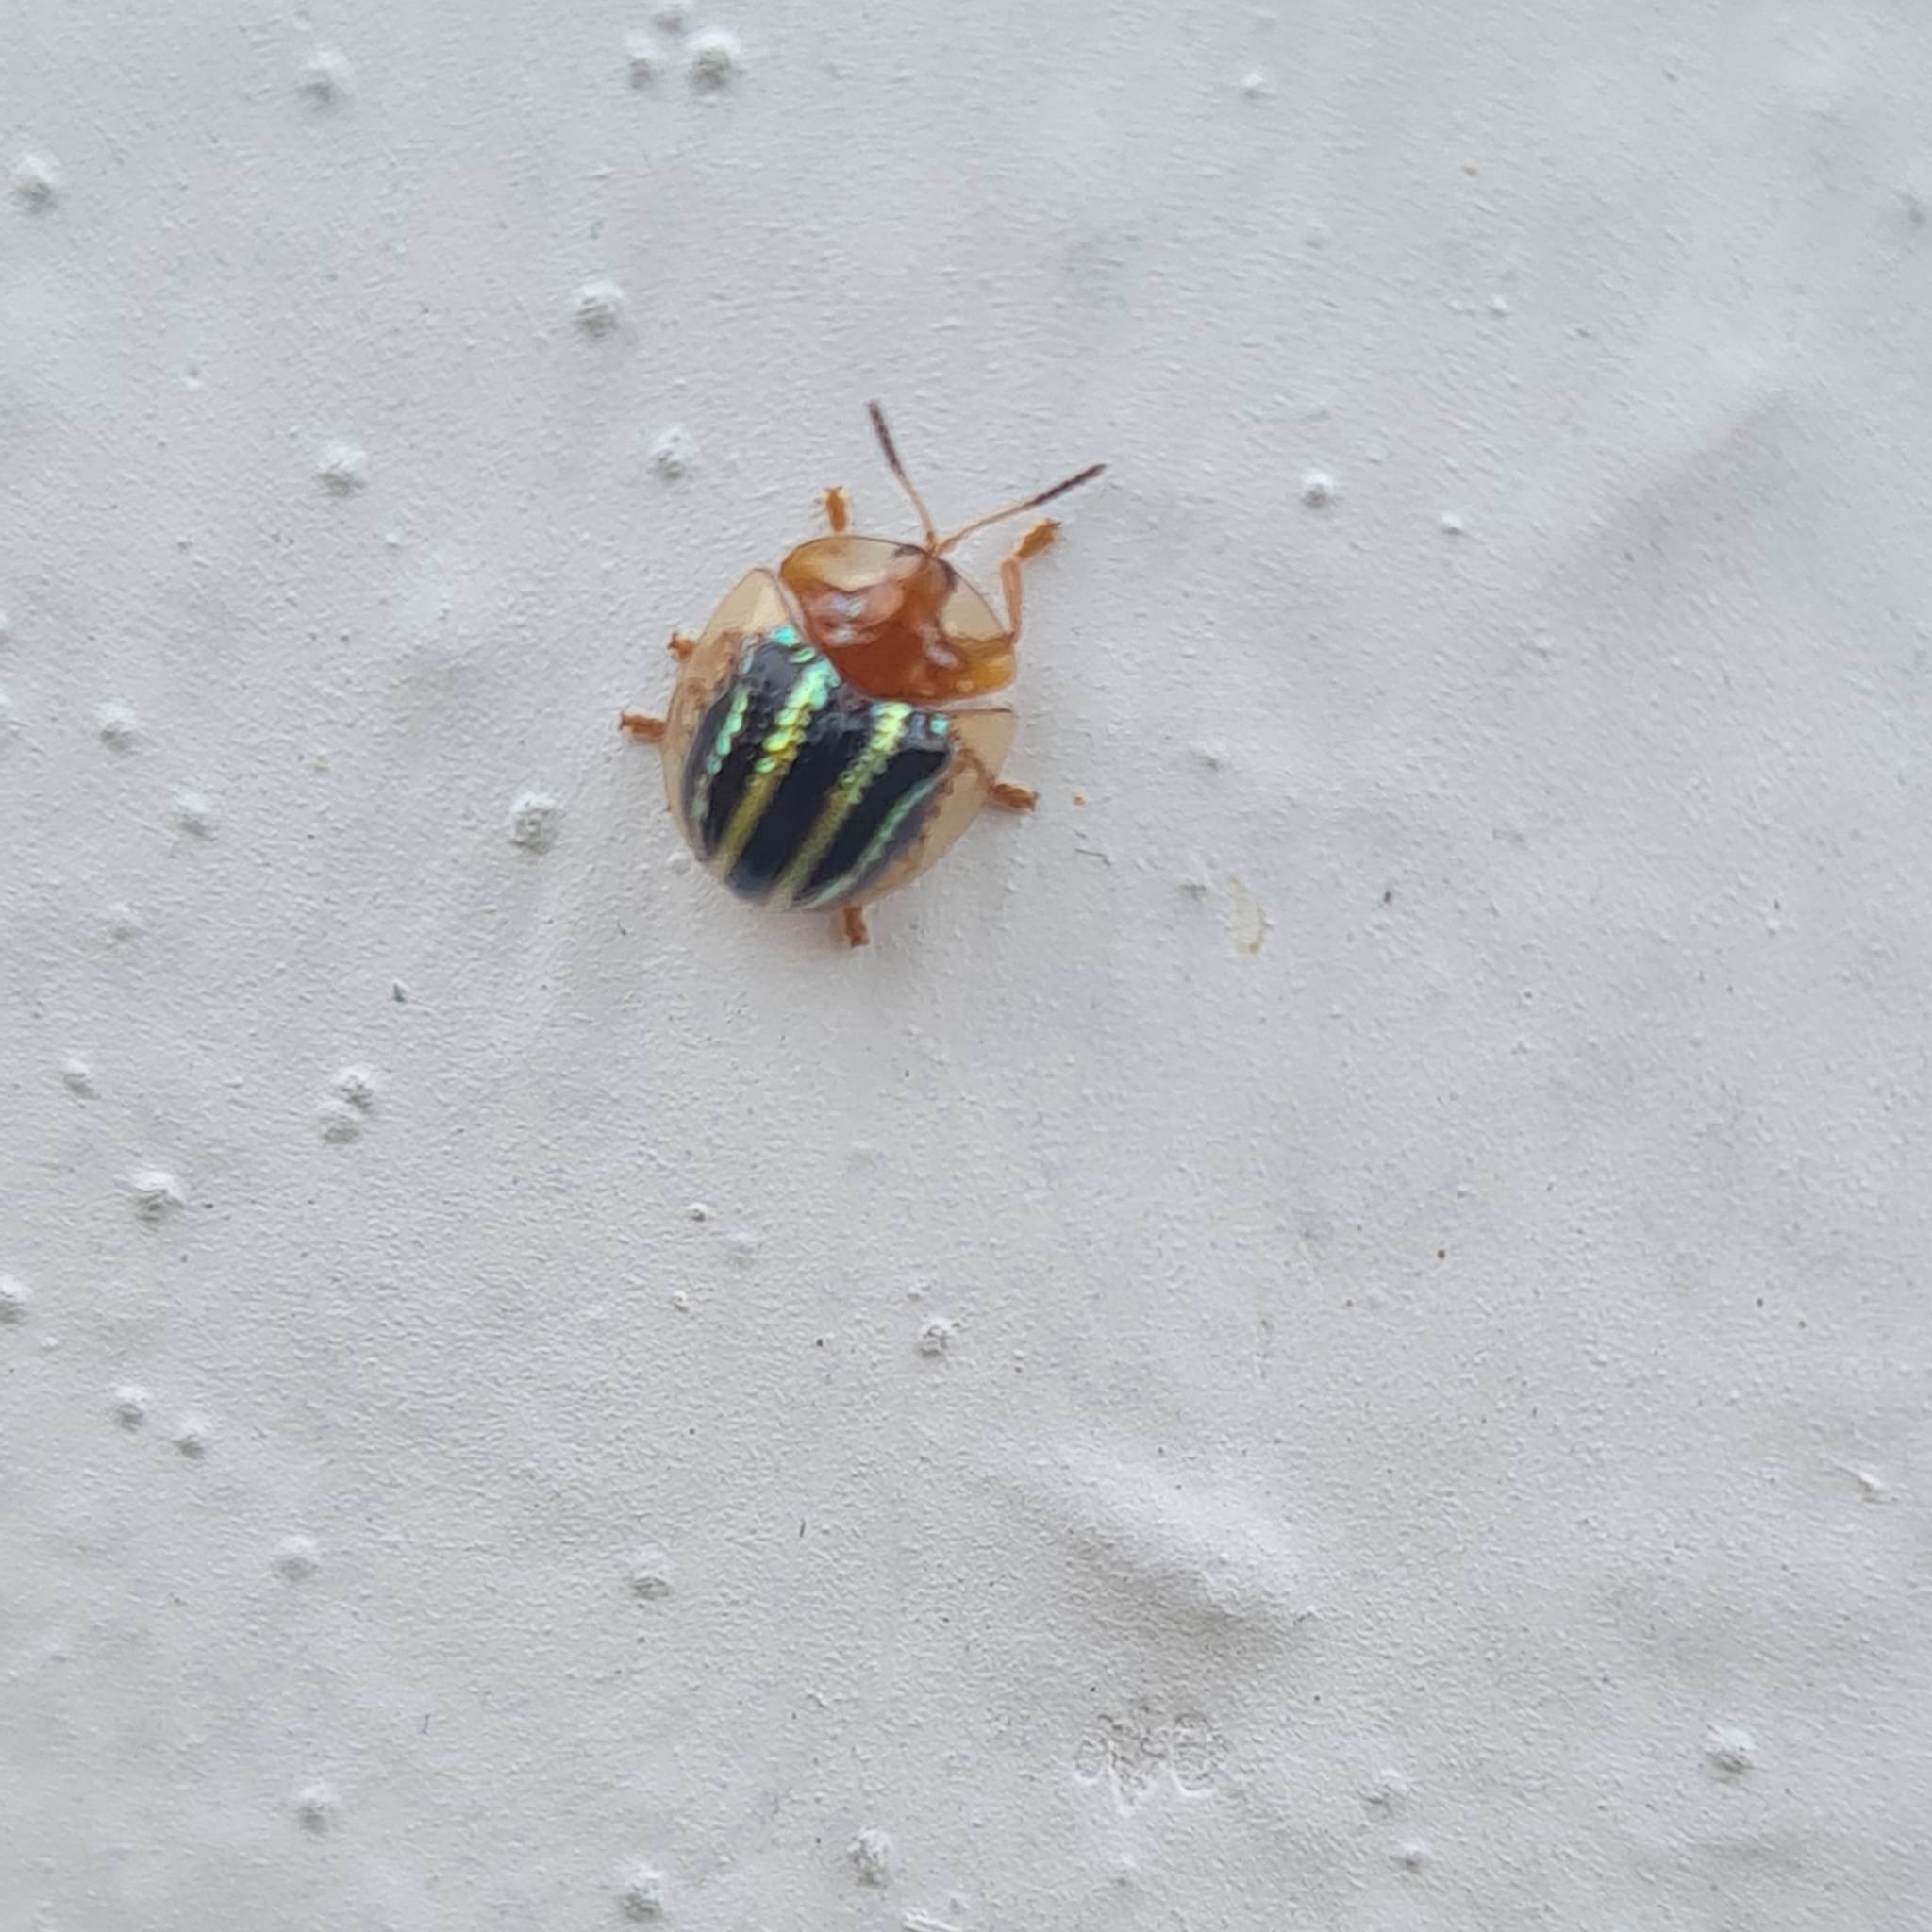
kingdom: Animalia
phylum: Arthropoda
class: Insecta
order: Coleoptera
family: Chrysomelidae
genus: Agroiconota
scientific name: Agroiconota propinqua
